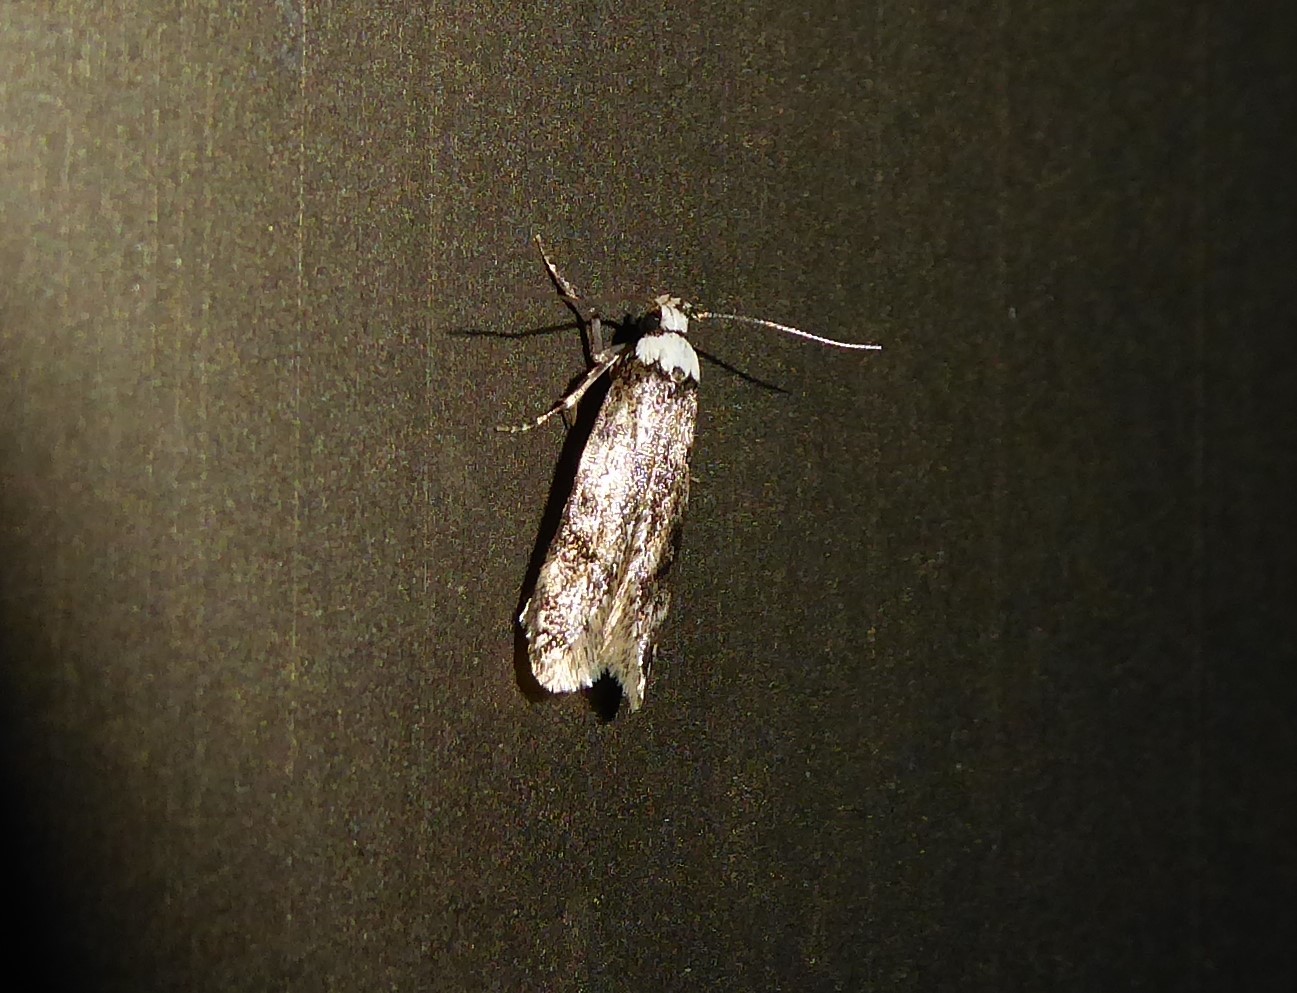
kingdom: Animalia
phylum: Arthropoda
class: Insecta
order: Lepidoptera
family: Oecophoridae
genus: Endrosis
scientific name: Endrosis sarcitrella
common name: White-shouldered house moth
